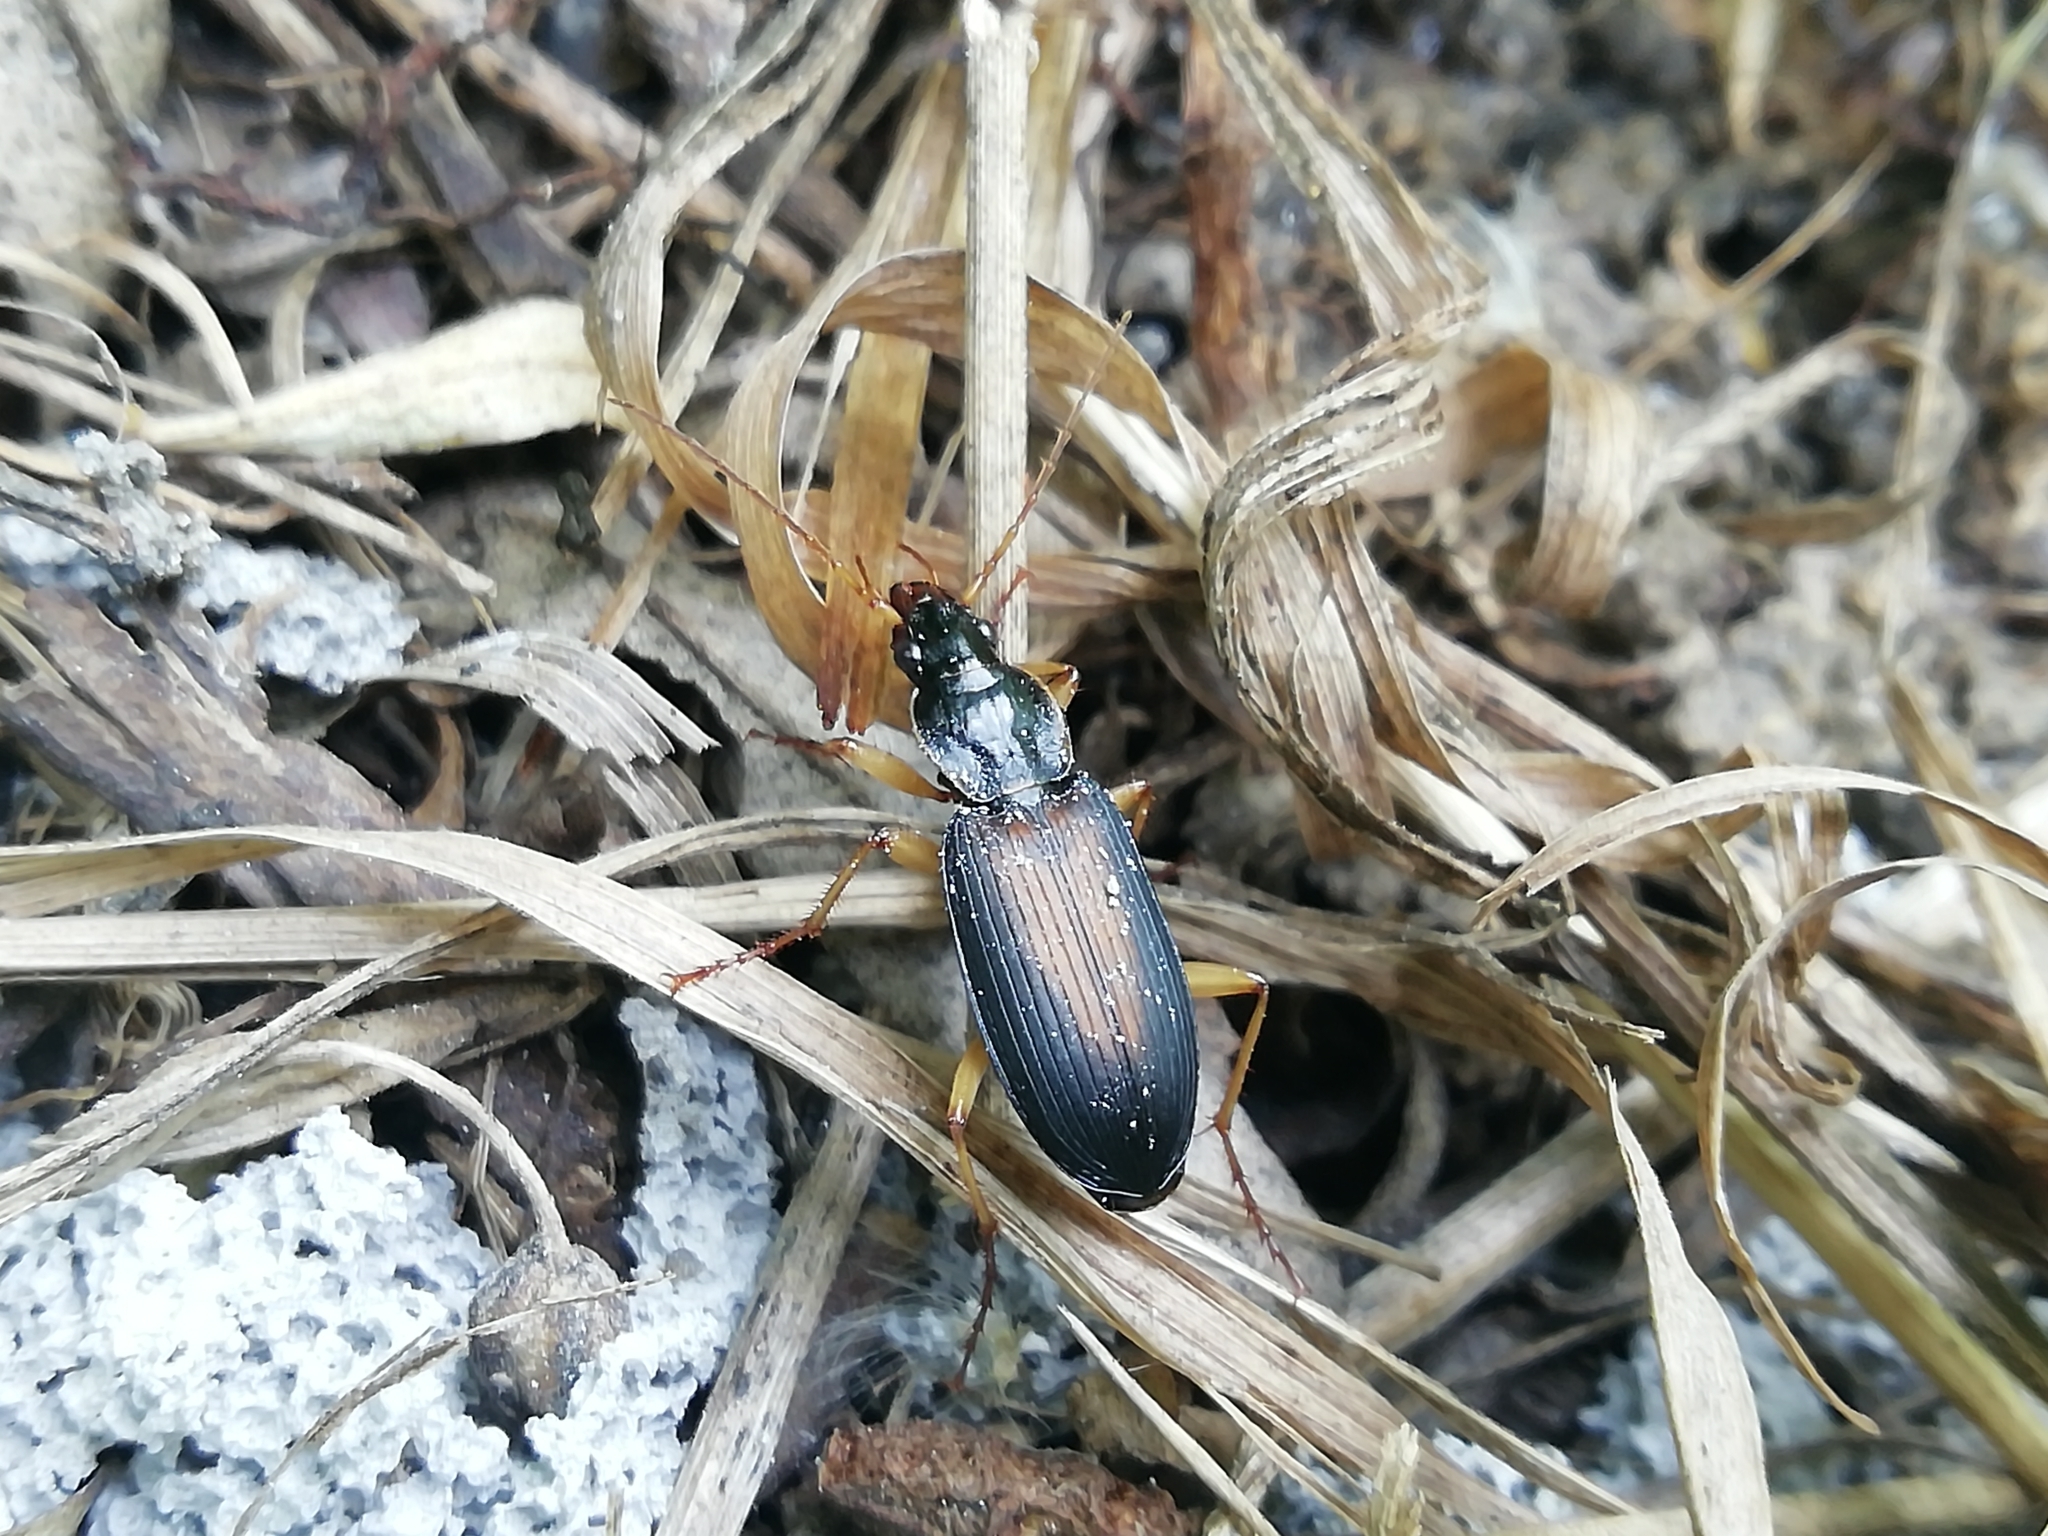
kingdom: Animalia
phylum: Arthropoda
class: Insecta
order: Coleoptera
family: Carabidae
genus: Dolichus
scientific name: Dolichus halensis
